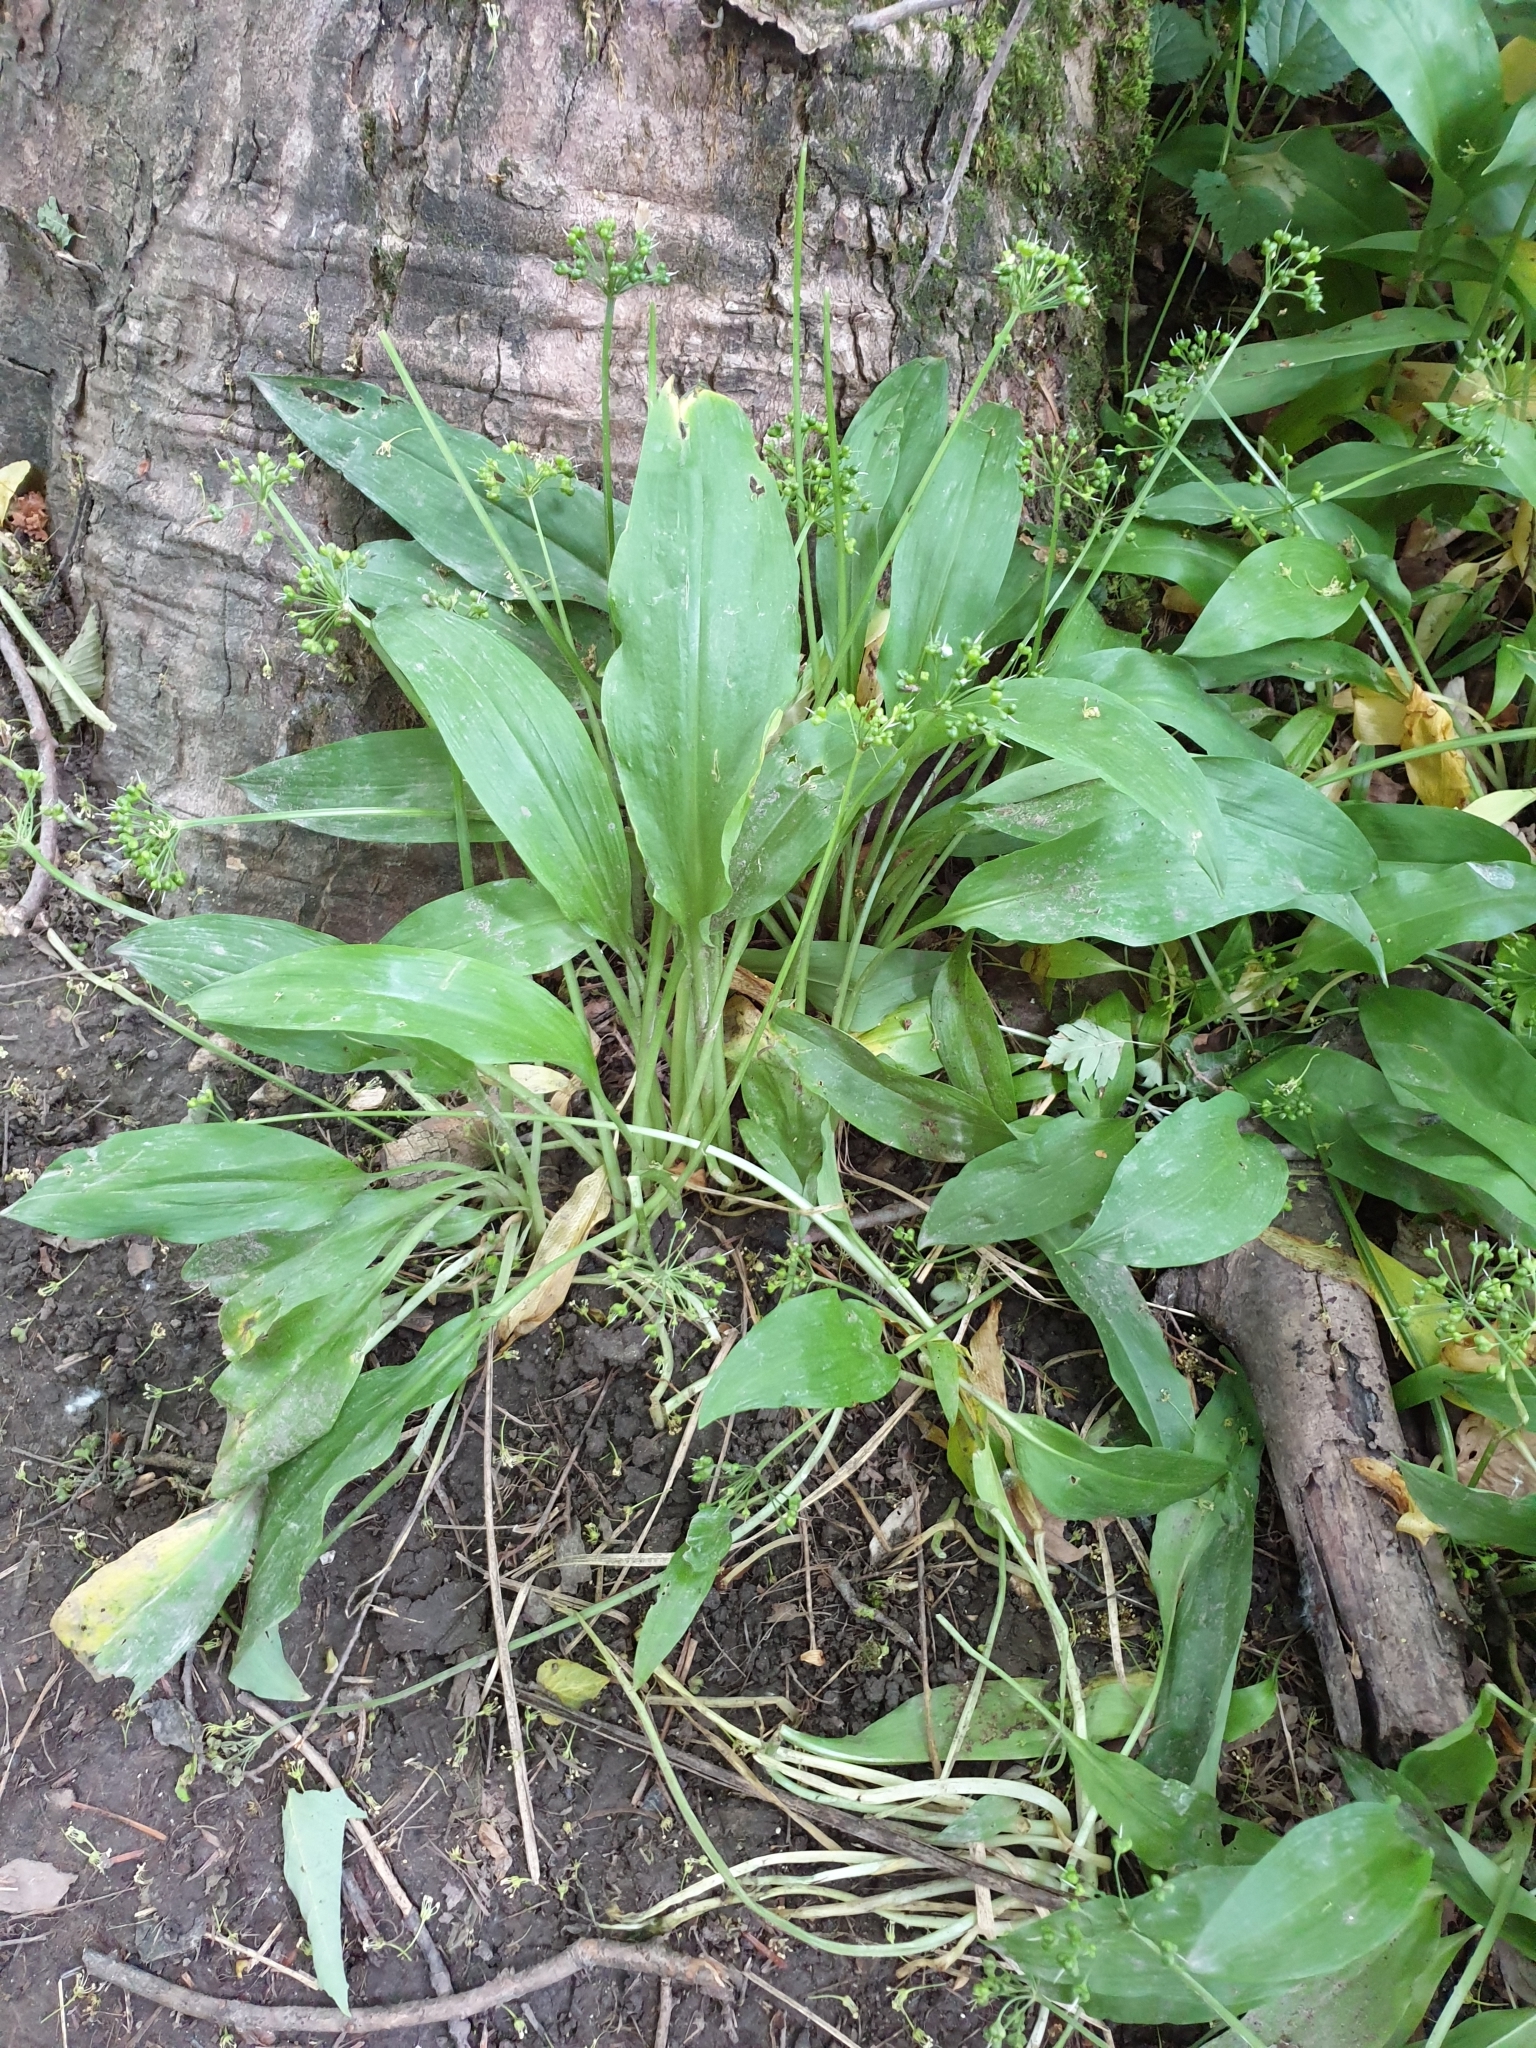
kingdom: Plantae
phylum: Tracheophyta
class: Liliopsida
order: Asparagales
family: Amaryllidaceae
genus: Allium
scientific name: Allium ursinum
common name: Ramsons
